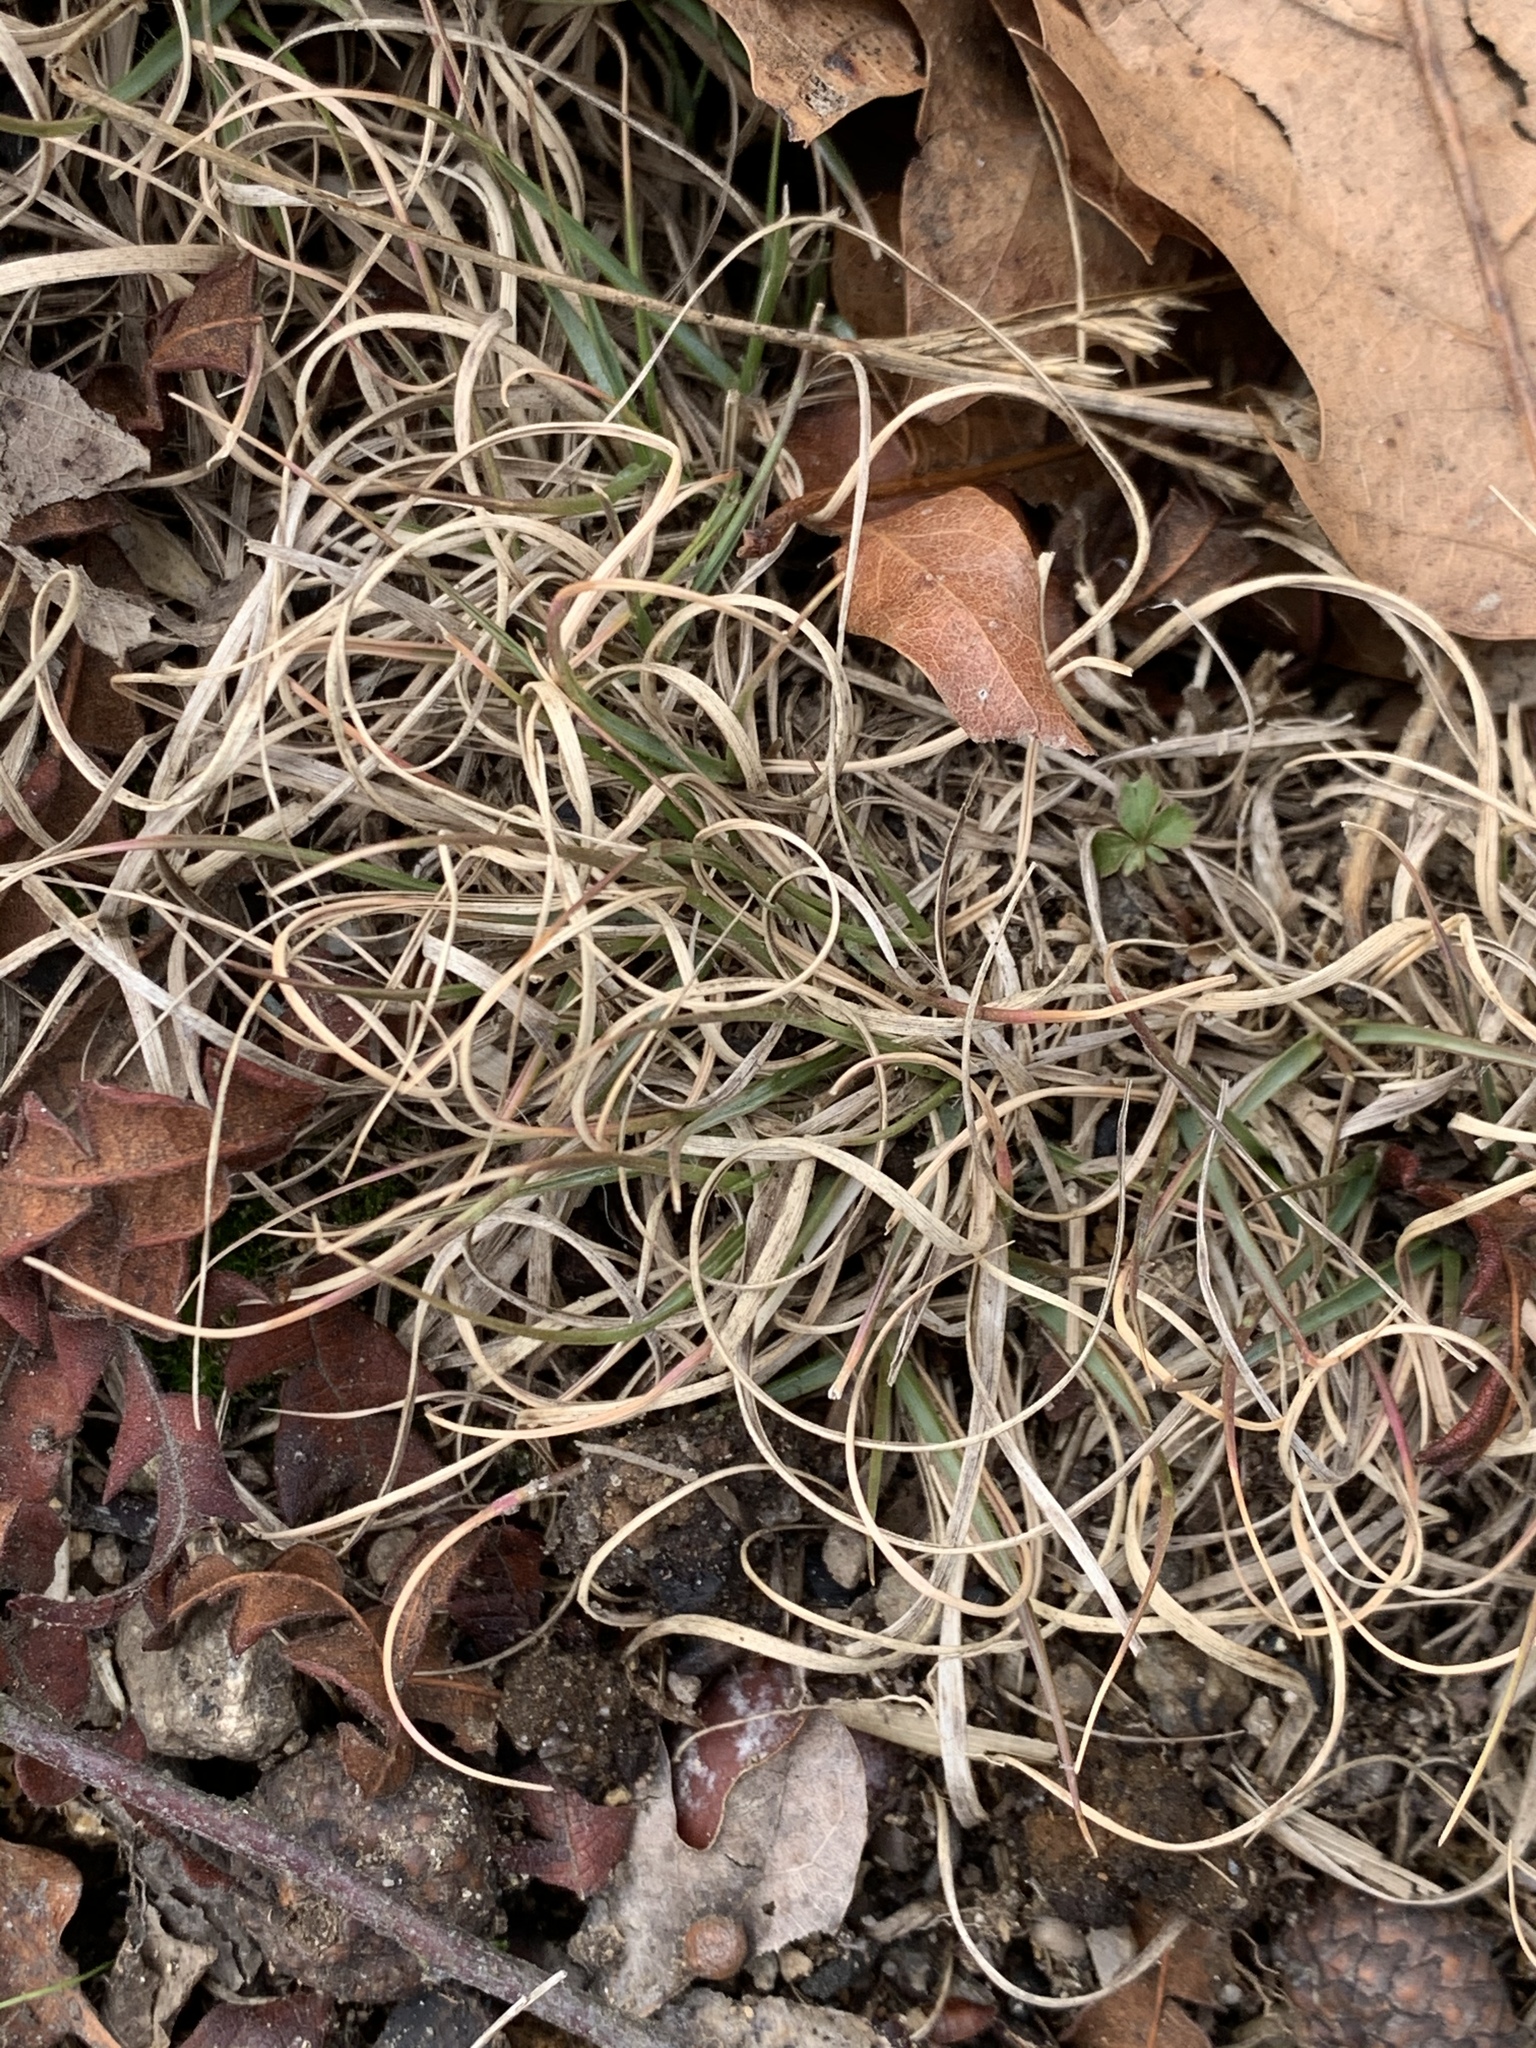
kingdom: Plantae
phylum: Tracheophyta
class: Liliopsida
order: Poales
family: Poaceae
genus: Danthonia
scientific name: Danthonia spicata
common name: Common wild oatgrass
